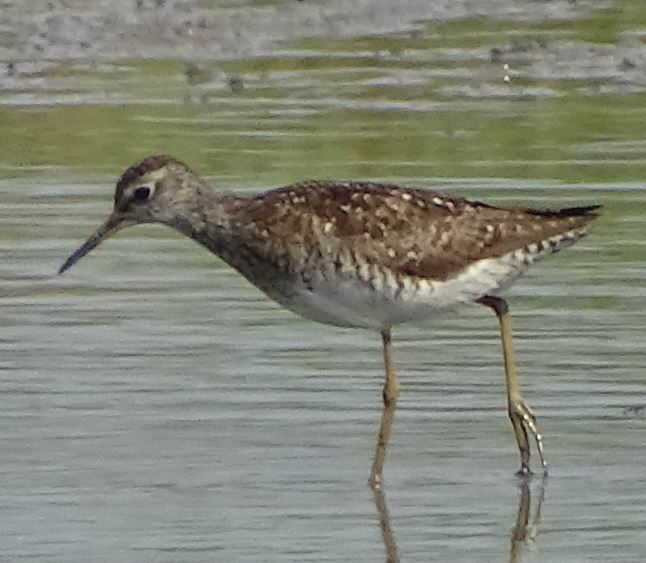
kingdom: Animalia
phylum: Chordata
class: Aves
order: Charadriiformes
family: Scolopacidae
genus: Tringa
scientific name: Tringa glareola
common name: Wood sandpiper
